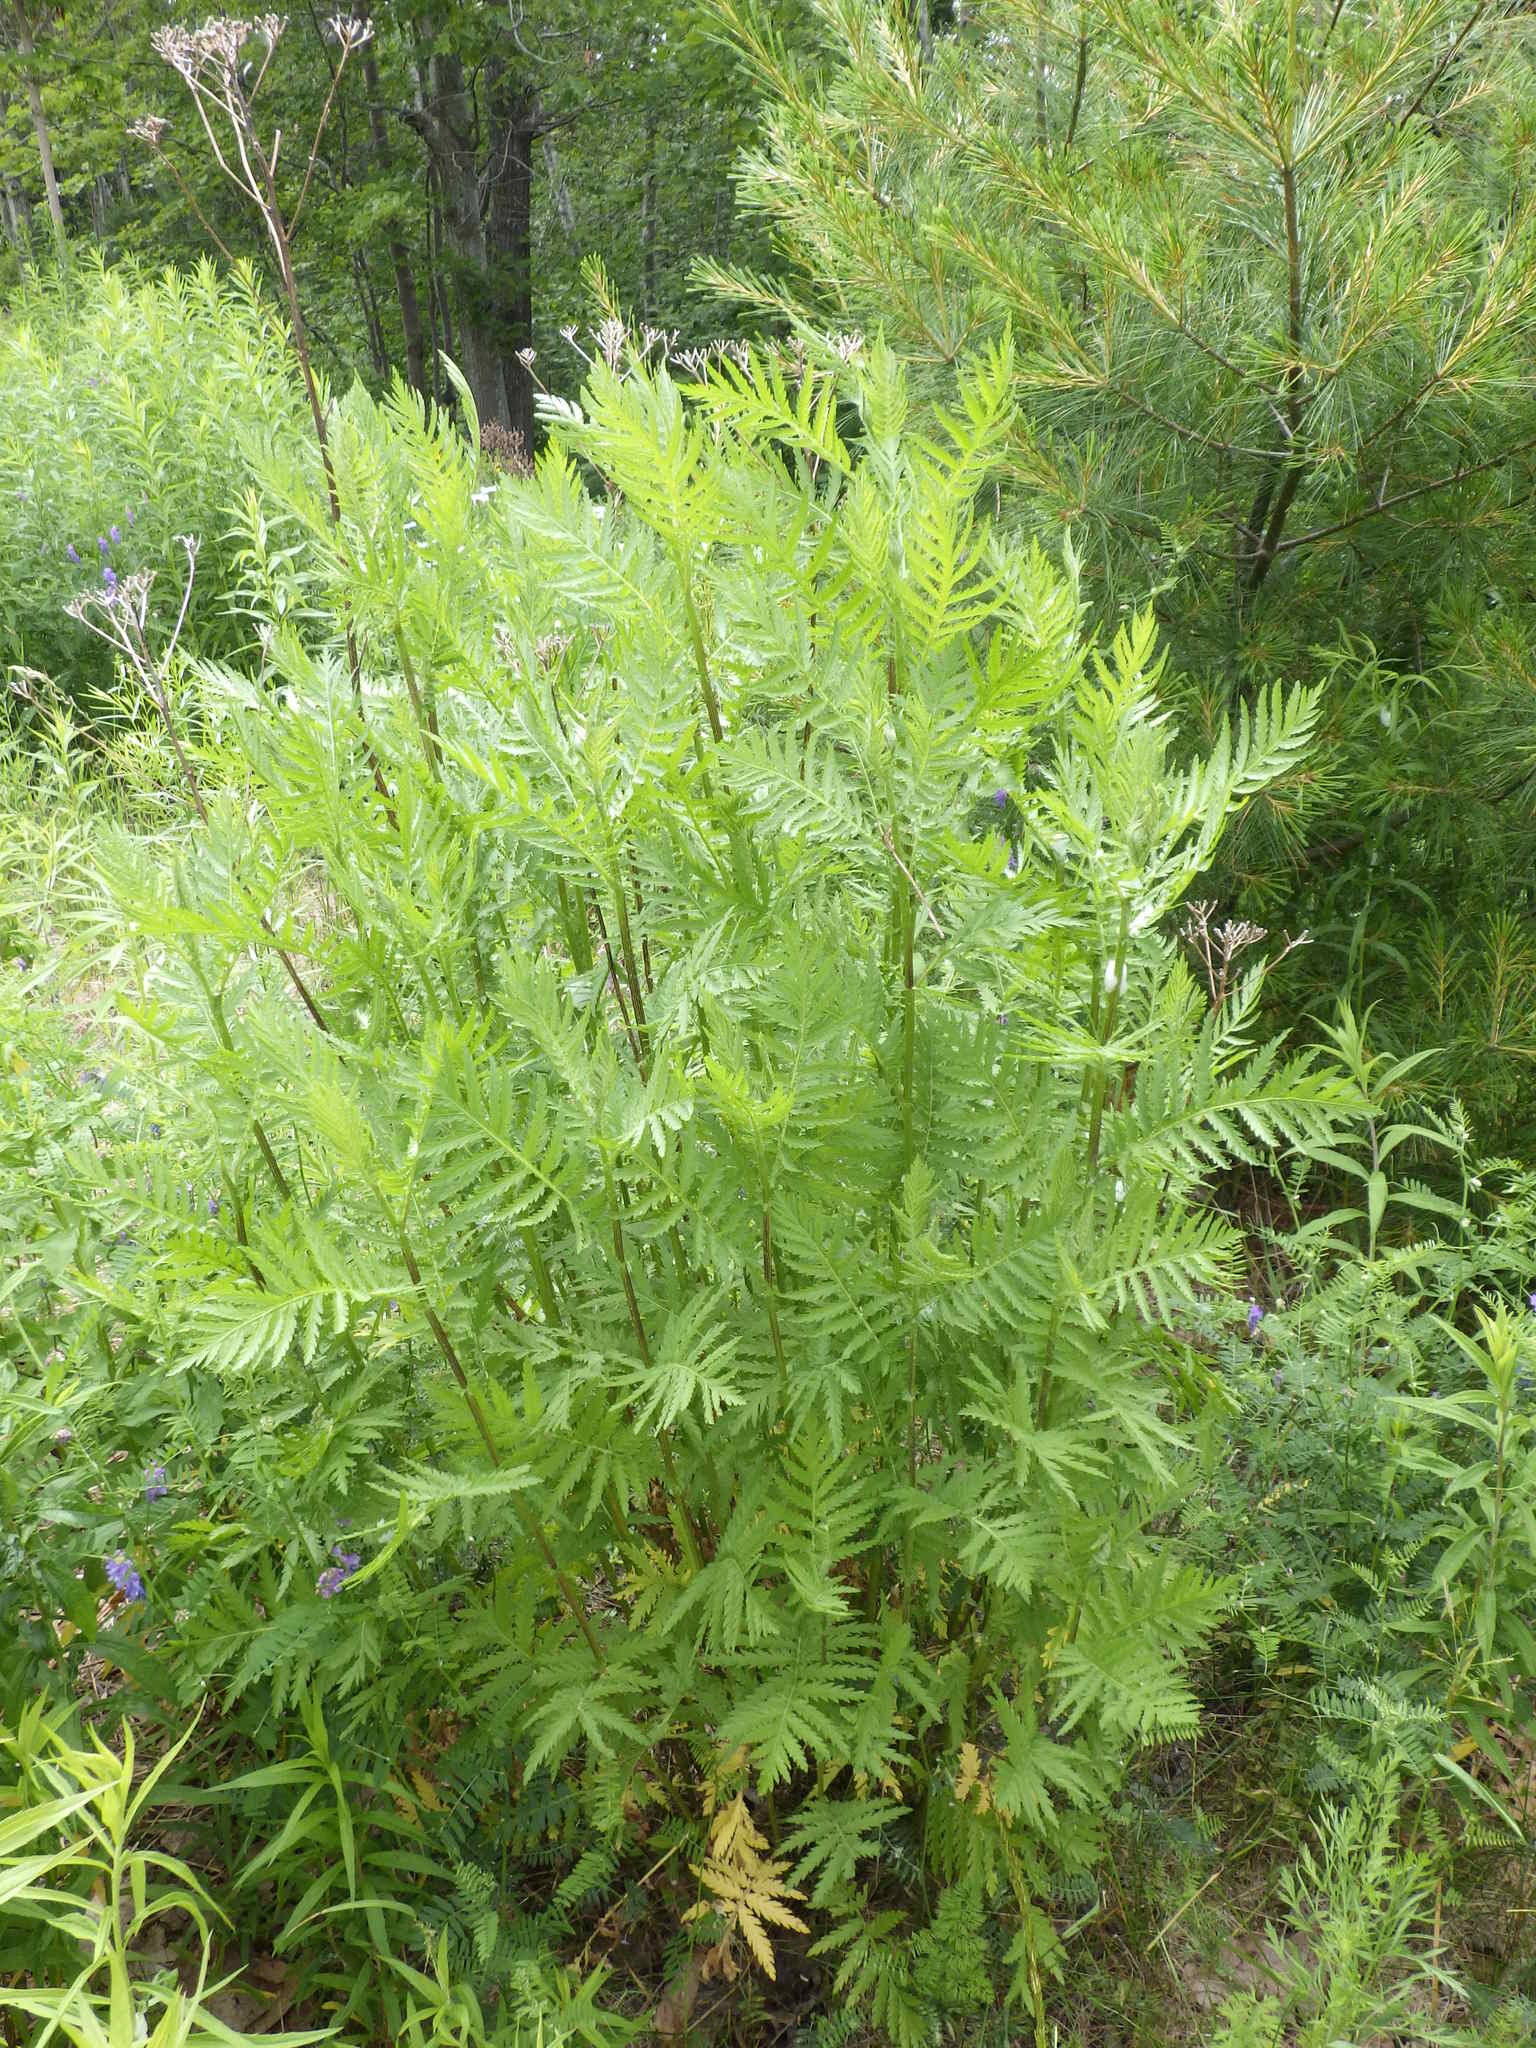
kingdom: Plantae
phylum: Tracheophyta
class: Magnoliopsida
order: Asterales
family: Asteraceae
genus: Tanacetum
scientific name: Tanacetum vulgare
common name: Common tansy
